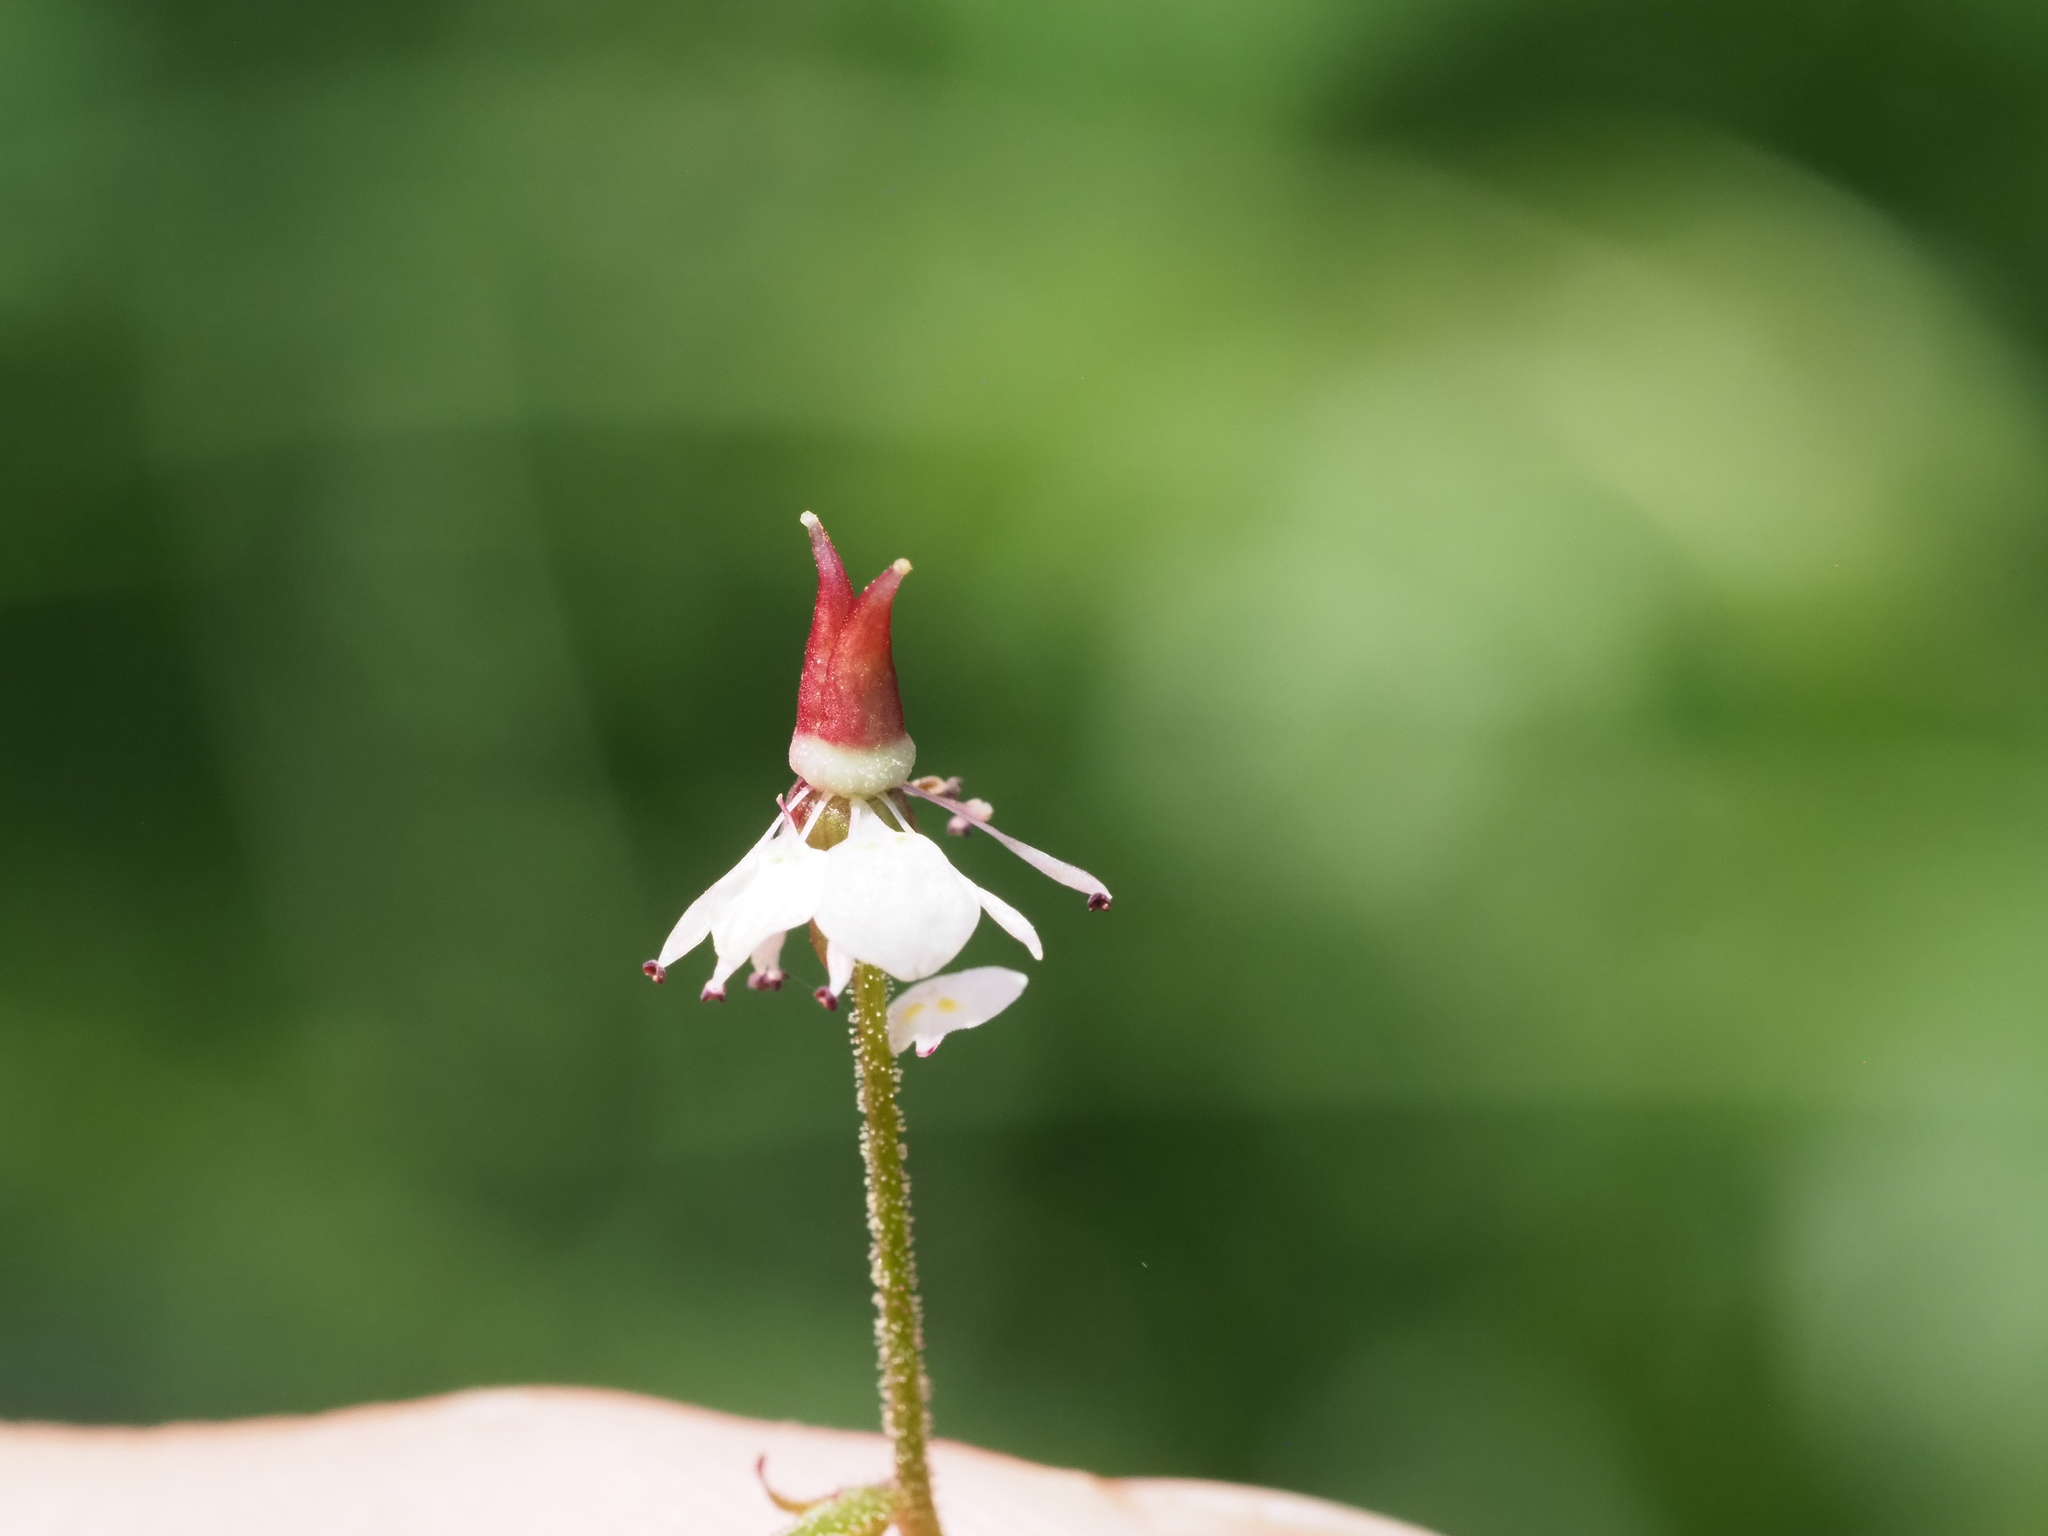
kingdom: Plantae
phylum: Tracheophyta
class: Magnoliopsida
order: Saxifragales
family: Saxifragaceae
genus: Micranthes
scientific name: Micranthes odontoloma
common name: Brook saxifrage
